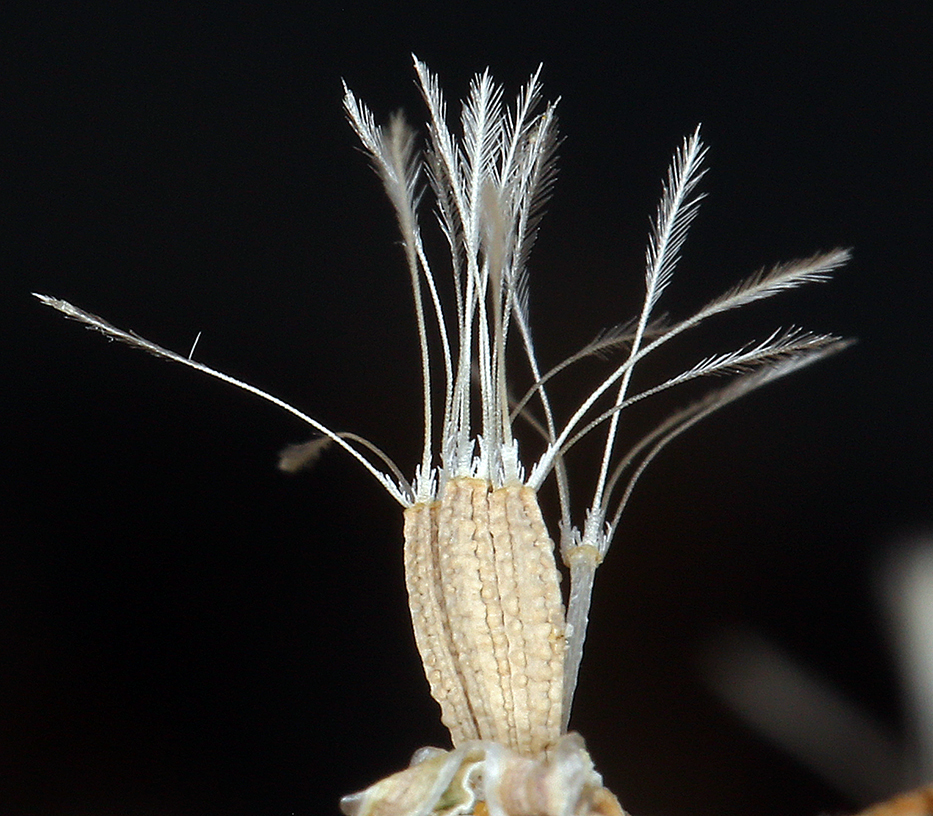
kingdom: Plantae
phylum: Tracheophyta
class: Magnoliopsida
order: Asterales
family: Asteraceae
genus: Stephanomeria
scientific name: Stephanomeria exigua
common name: Small wirelettuce
